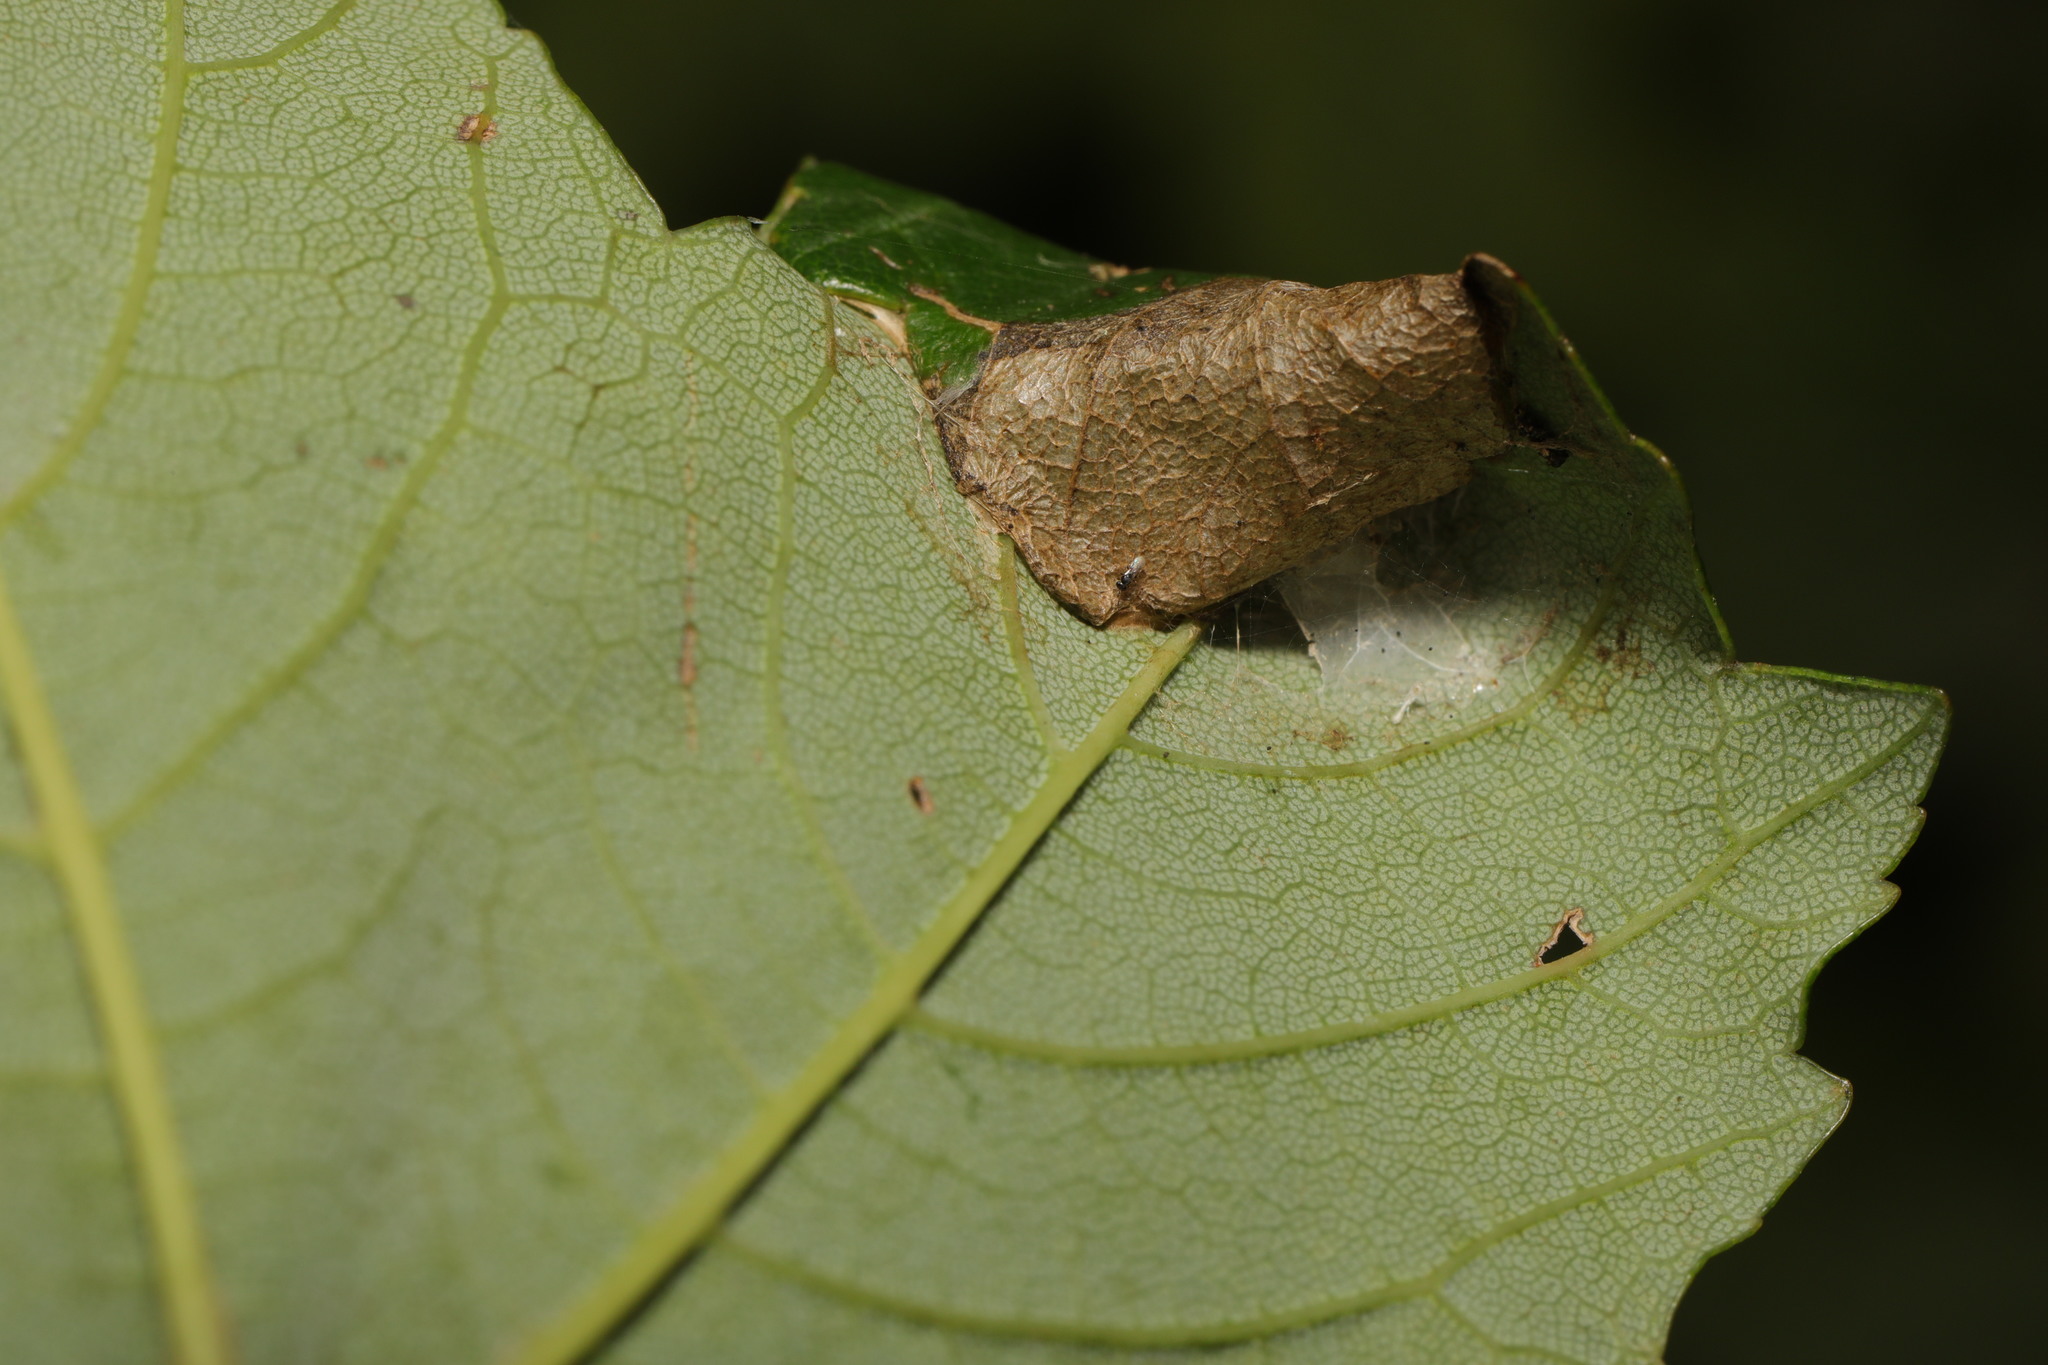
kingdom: Animalia
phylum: Arthropoda
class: Insecta
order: Lepidoptera
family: Gracillariidae
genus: Caloptilia
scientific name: Caloptilia rufipennella
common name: Small red slender
